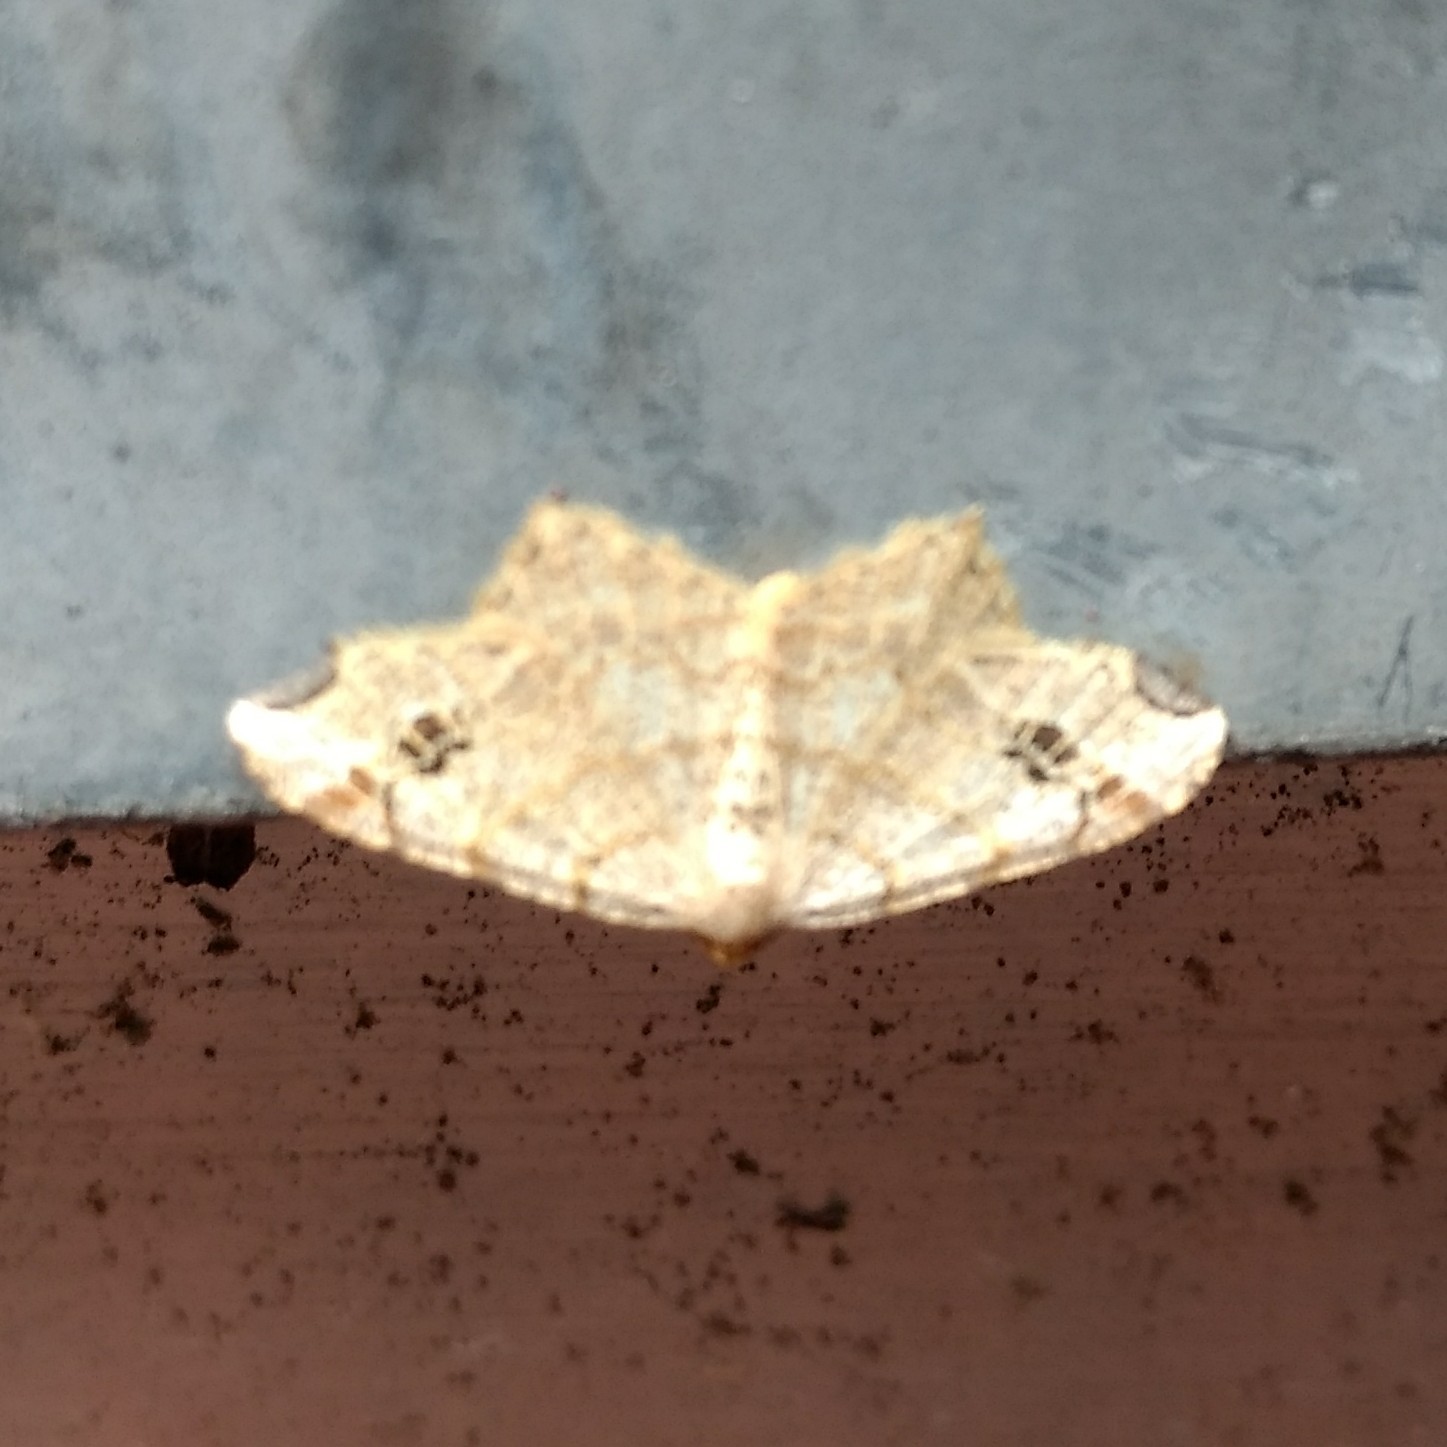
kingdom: Animalia
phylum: Arthropoda
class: Insecta
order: Lepidoptera
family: Geometridae
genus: Macaria
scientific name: Macaria aemulataria
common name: Common angle
